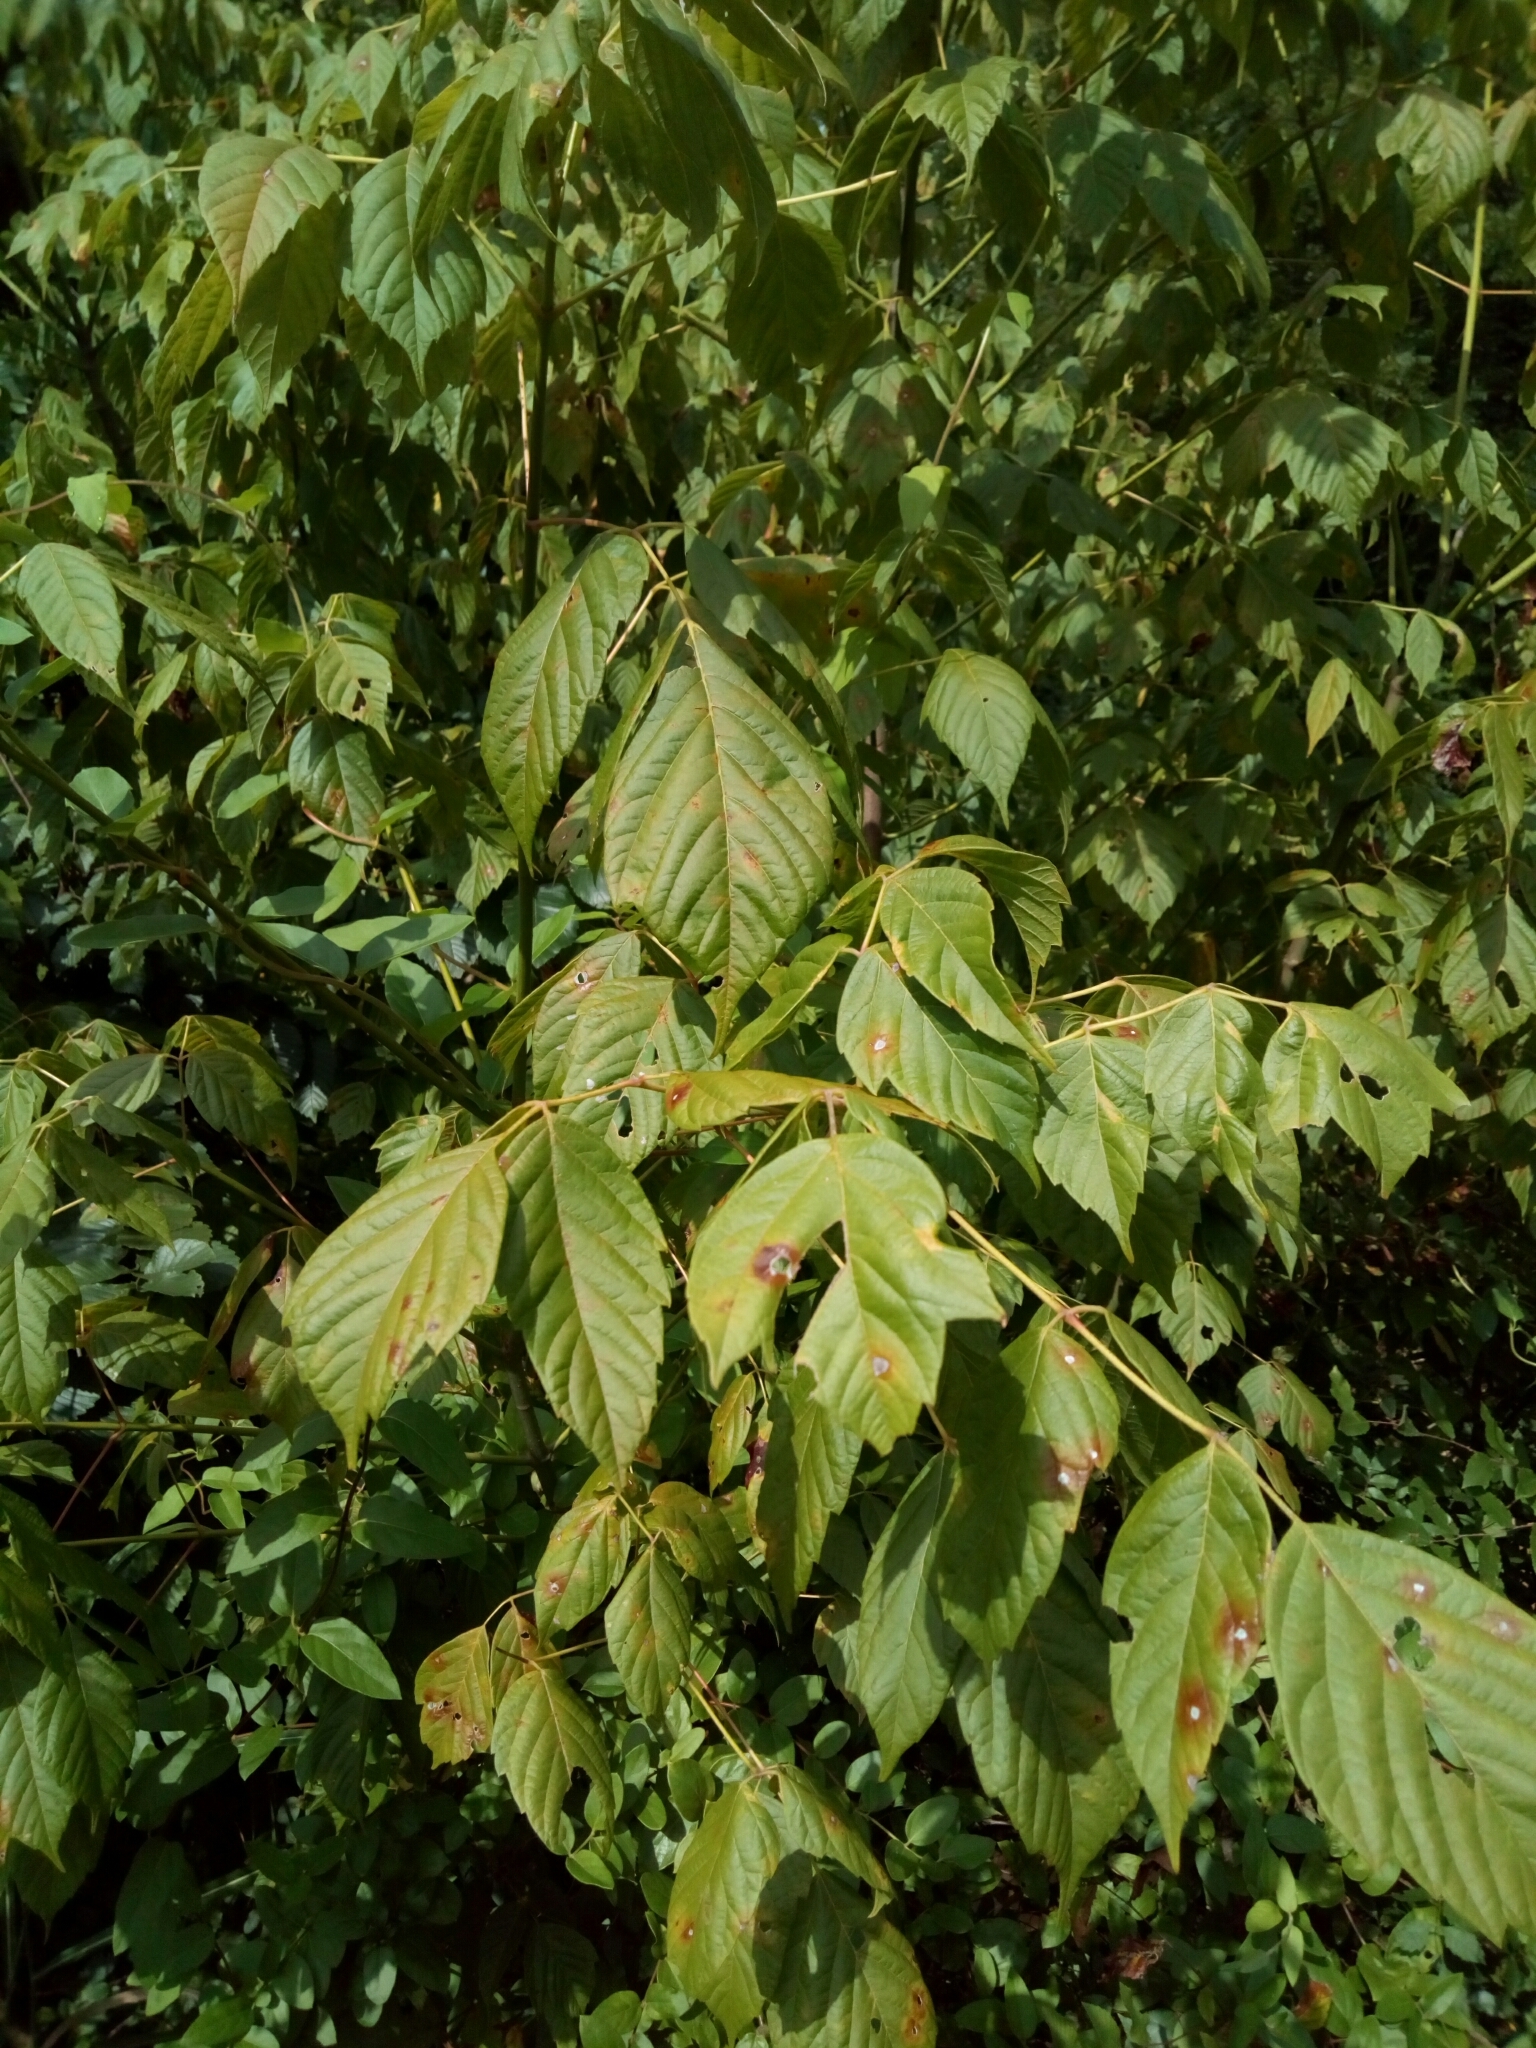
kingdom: Plantae
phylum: Tracheophyta
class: Magnoliopsida
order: Sapindales
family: Sapindaceae
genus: Acer
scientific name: Acer negundo
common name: Ashleaf maple
